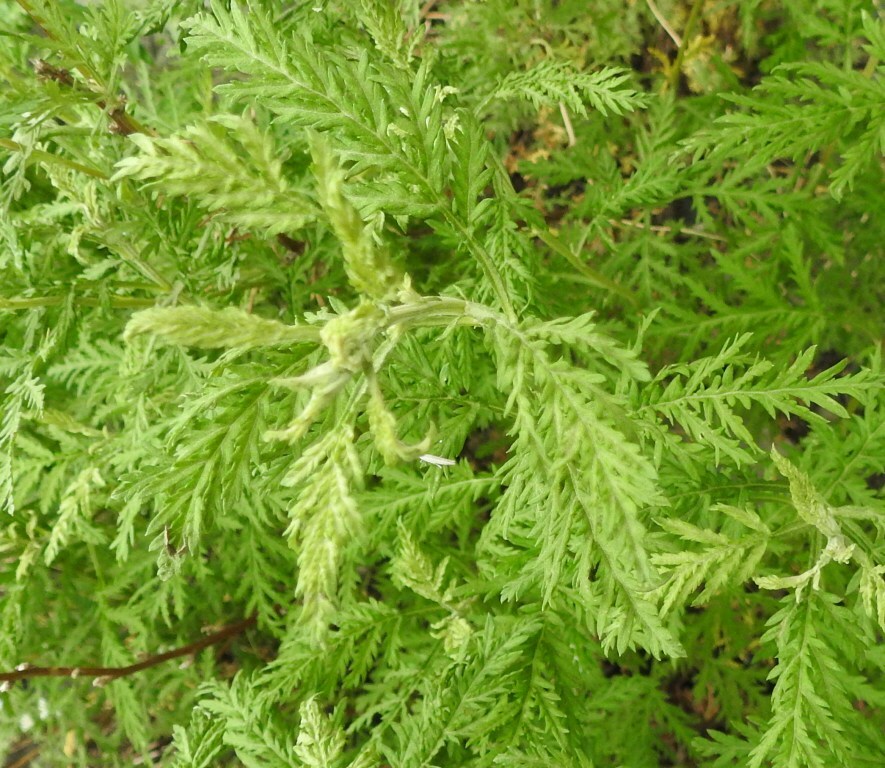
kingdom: Plantae
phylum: Tracheophyta
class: Magnoliopsida
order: Asterales
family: Asteraceae
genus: Artemisia
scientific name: Artemisia gmelinii
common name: Gmelin's wormwood
